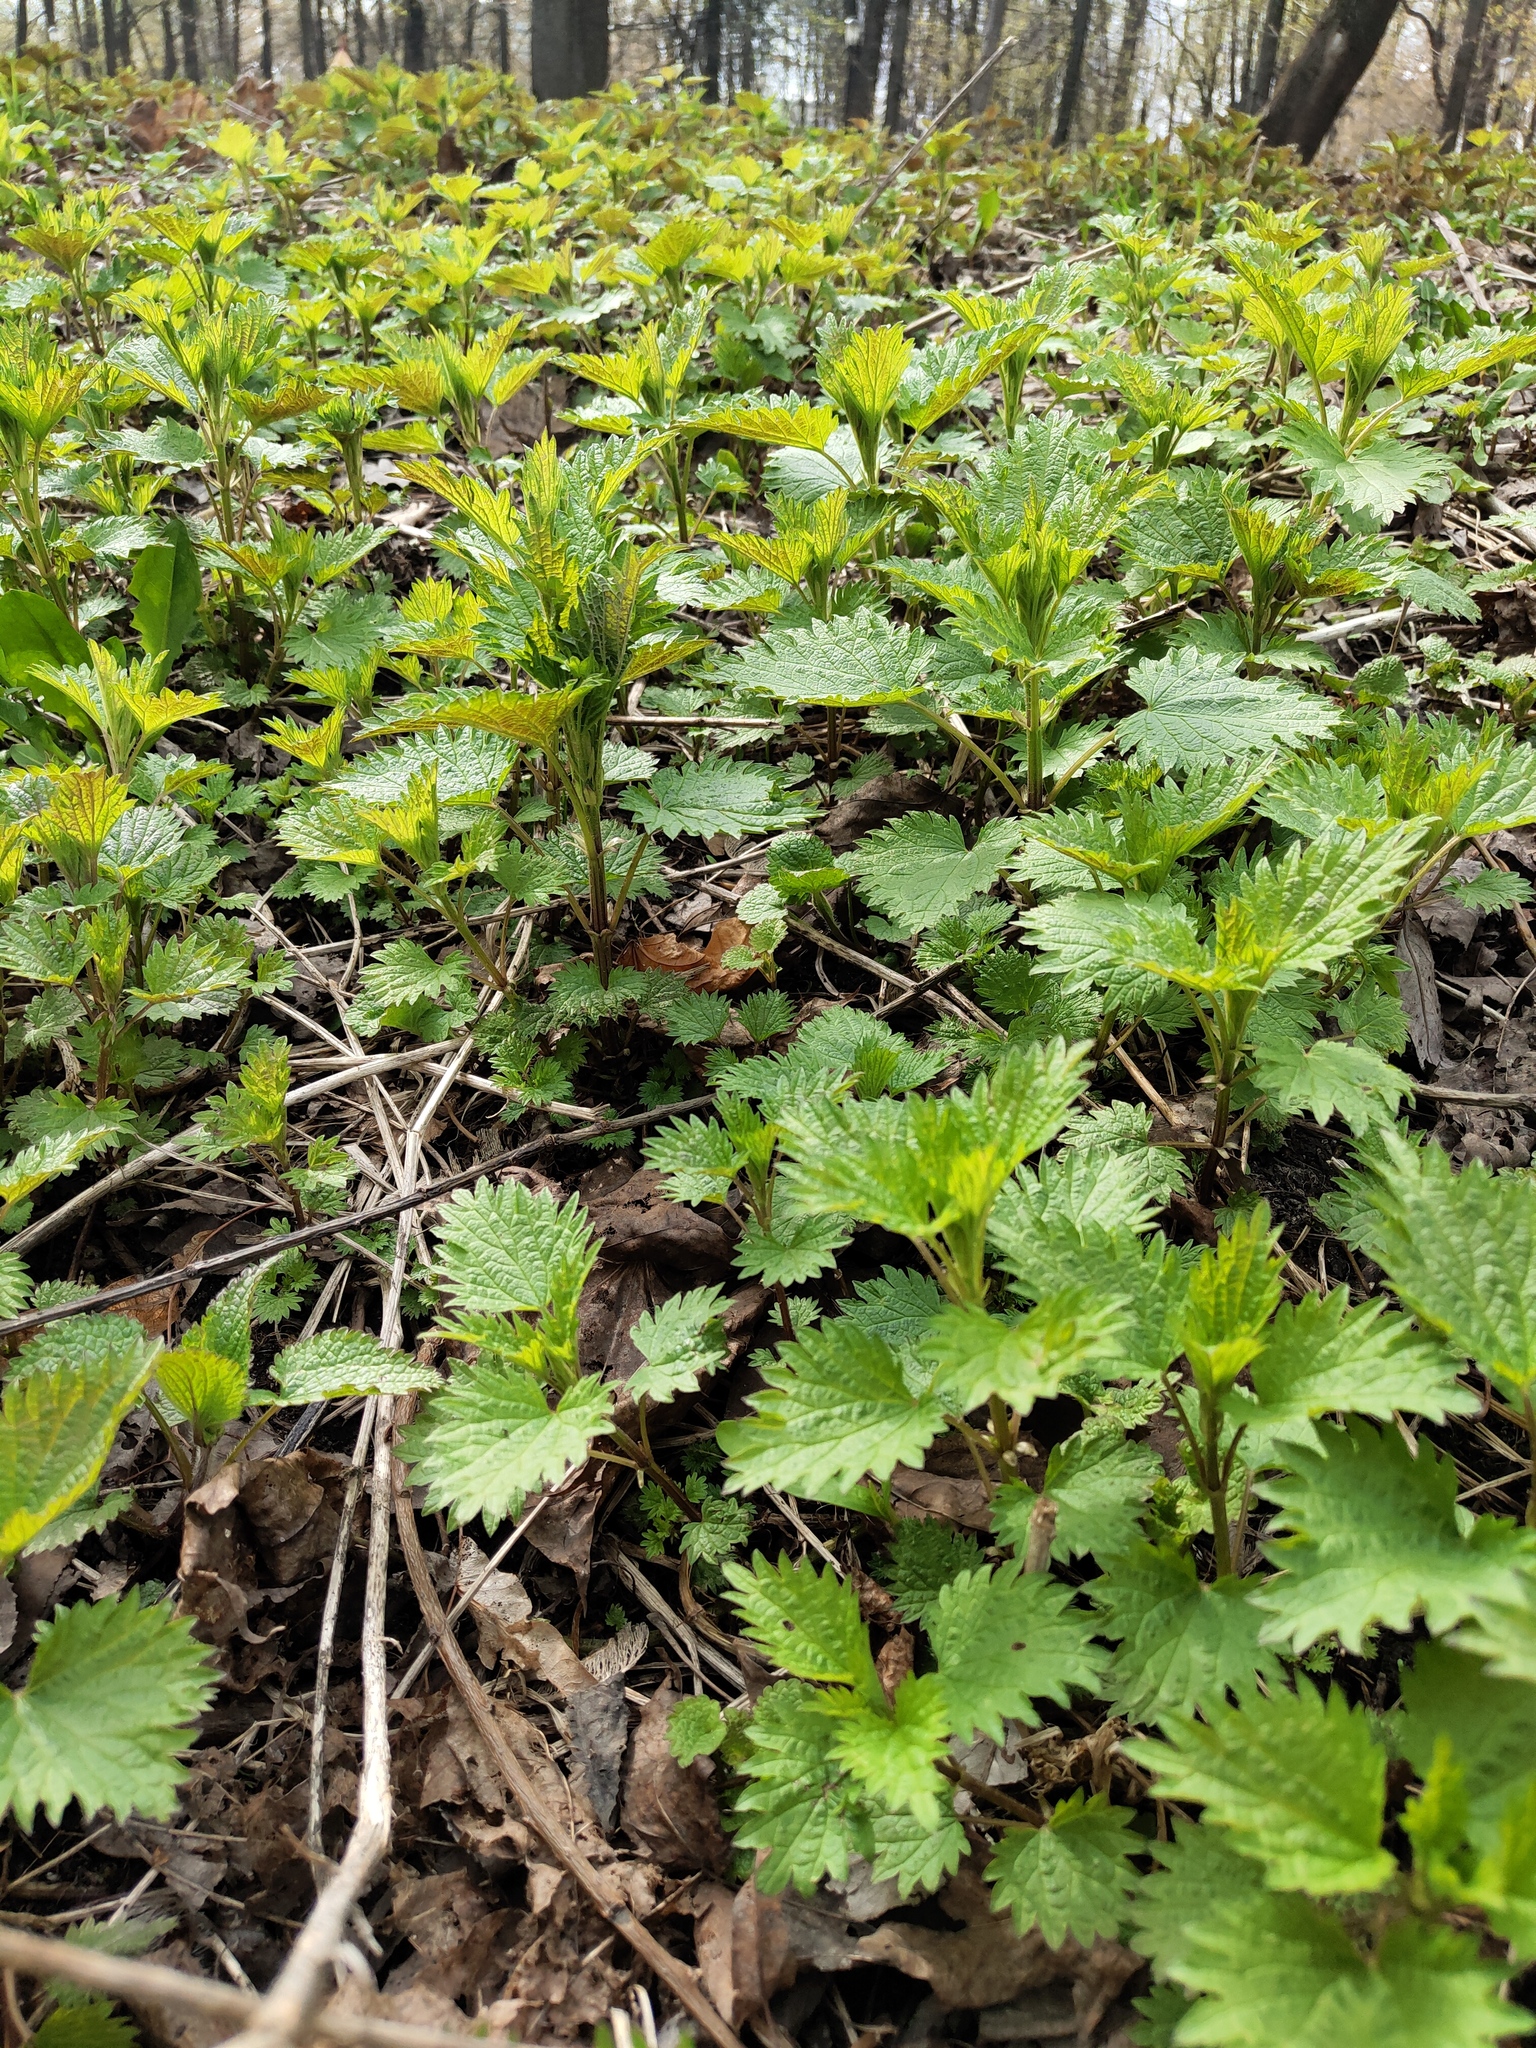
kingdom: Plantae
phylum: Tracheophyta
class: Magnoliopsida
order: Rosales
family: Urticaceae
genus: Urtica
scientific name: Urtica dioica
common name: Common nettle
